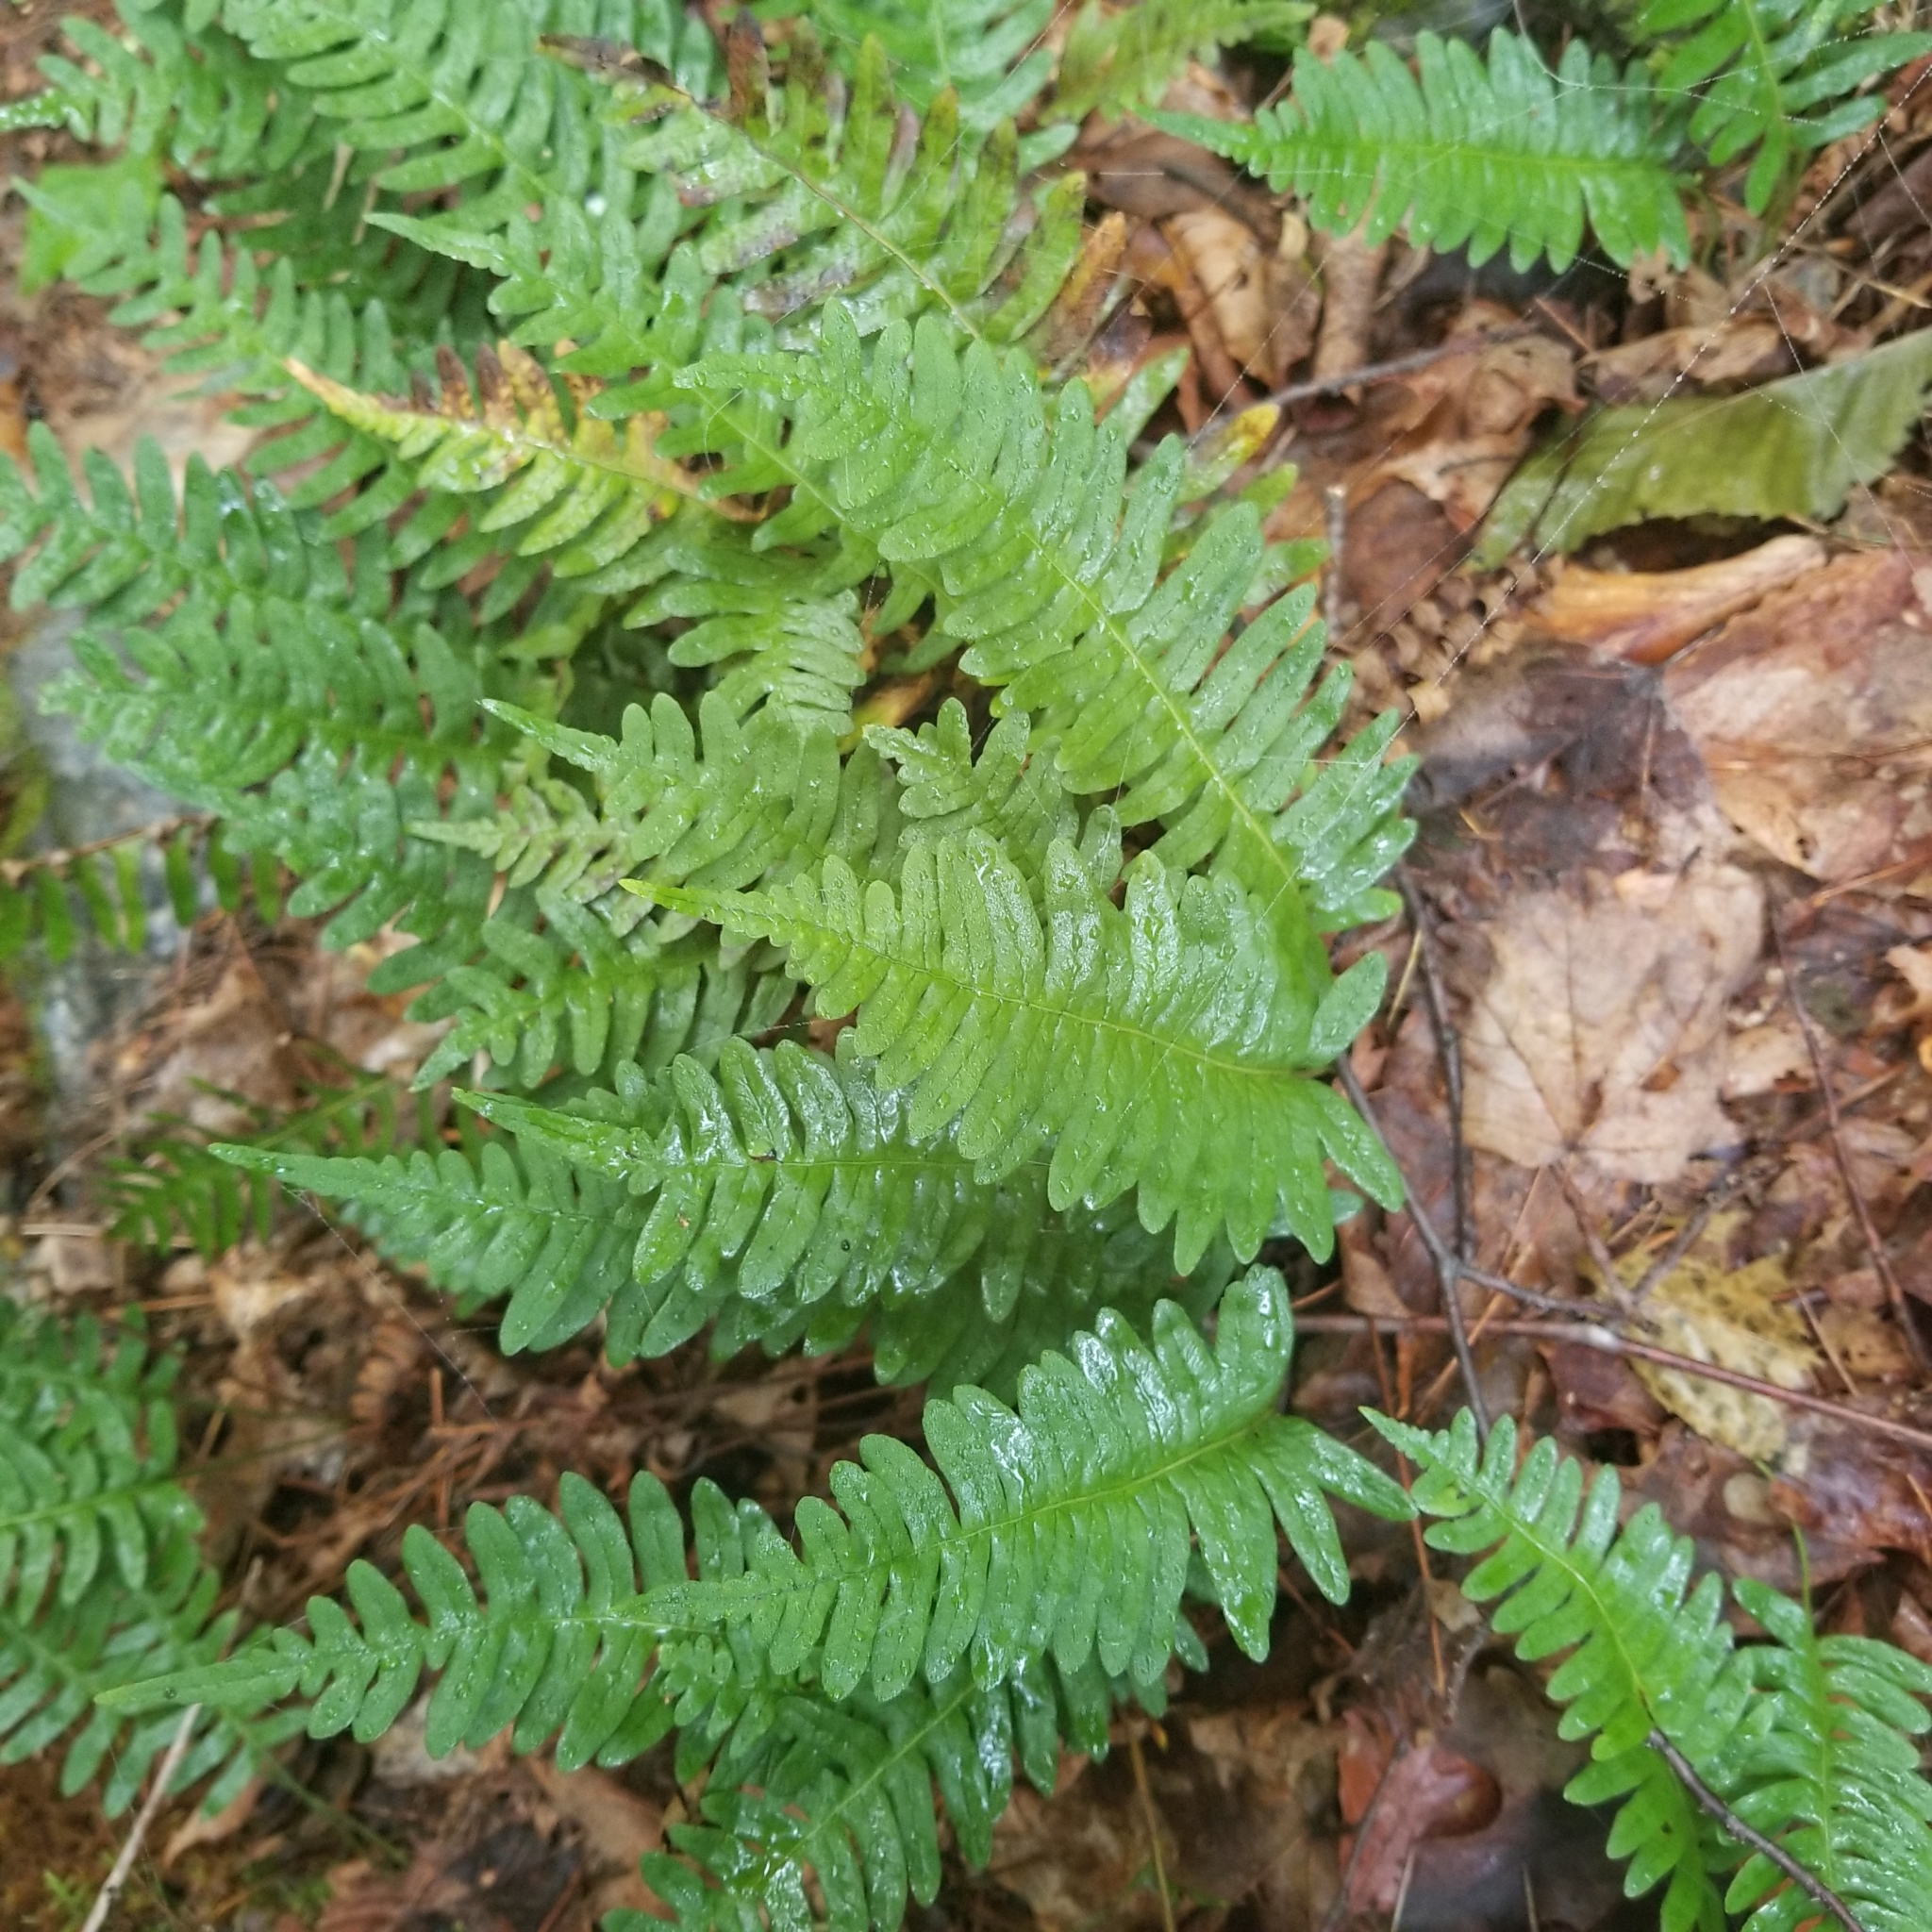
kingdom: Plantae
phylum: Tracheophyta
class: Polypodiopsida
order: Polypodiales
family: Polypodiaceae
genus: Polypodium
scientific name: Polypodium virginianum
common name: American wall fern
